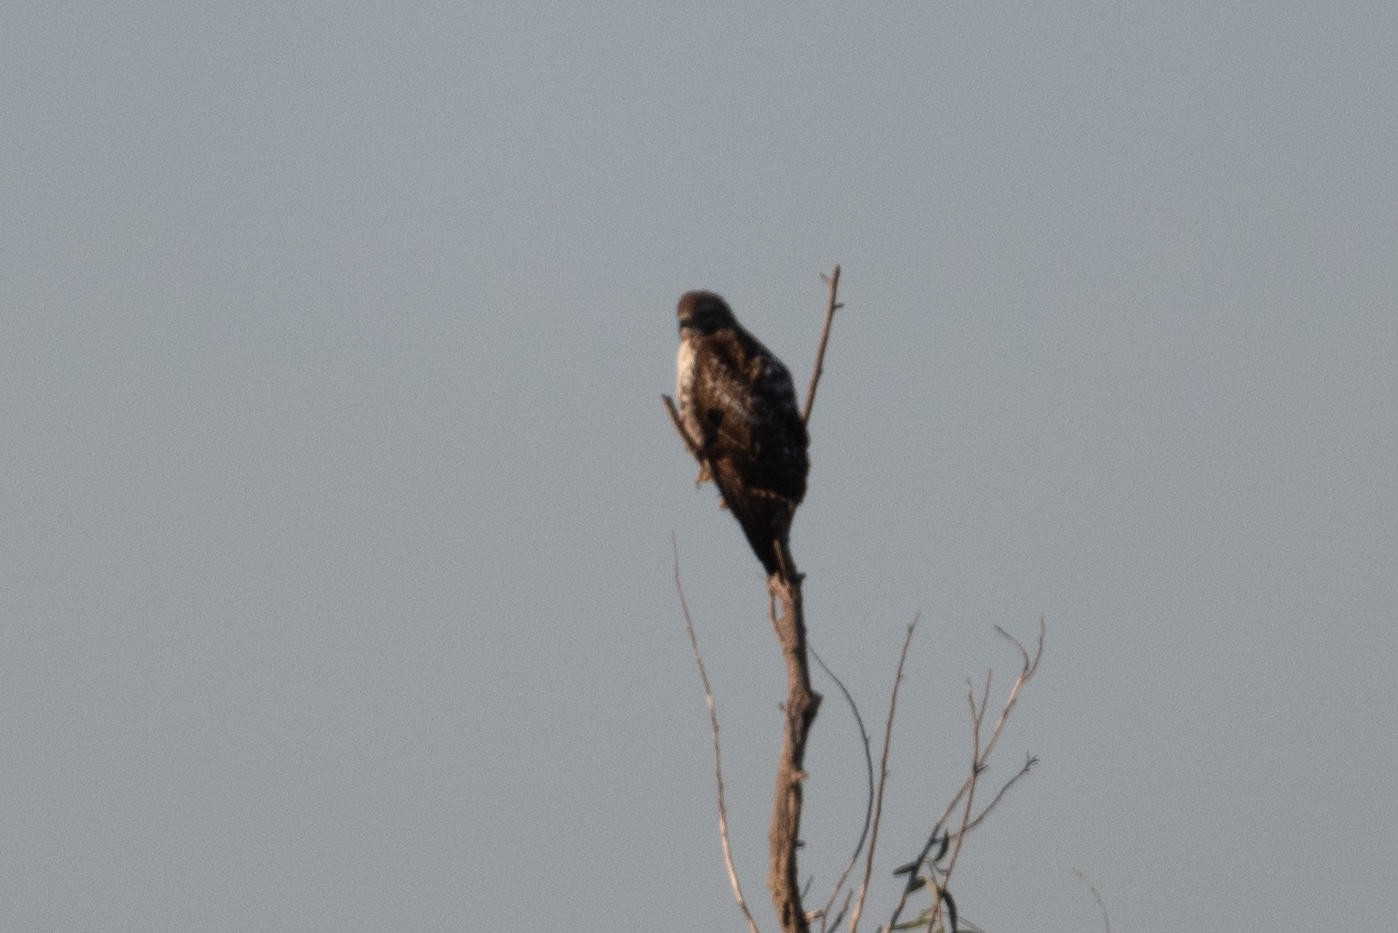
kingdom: Animalia
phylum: Chordata
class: Aves
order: Accipitriformes
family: Accipitridae
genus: Buteo
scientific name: Buteo jamaicensis
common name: Red-tailed hawk
